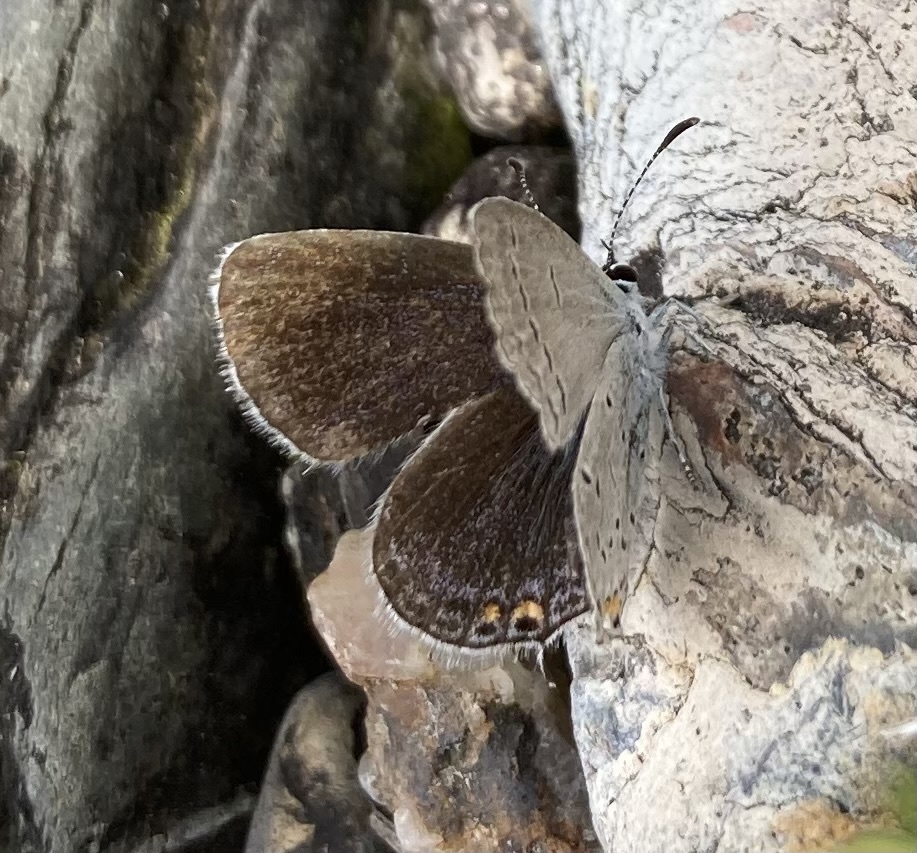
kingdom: Animalia
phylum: Arthropoda
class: Insecta
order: Lepidoptera
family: Lycaenidae
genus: Elkalyce
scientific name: Elkalyce comyntas
